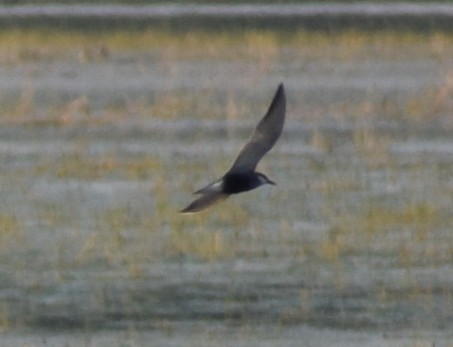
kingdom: Animalia
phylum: Chordata
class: Aves
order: Charadriiformes
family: Laridae
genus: Chlidonias
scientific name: Chlidonias hybrida
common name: Whiskered tern
